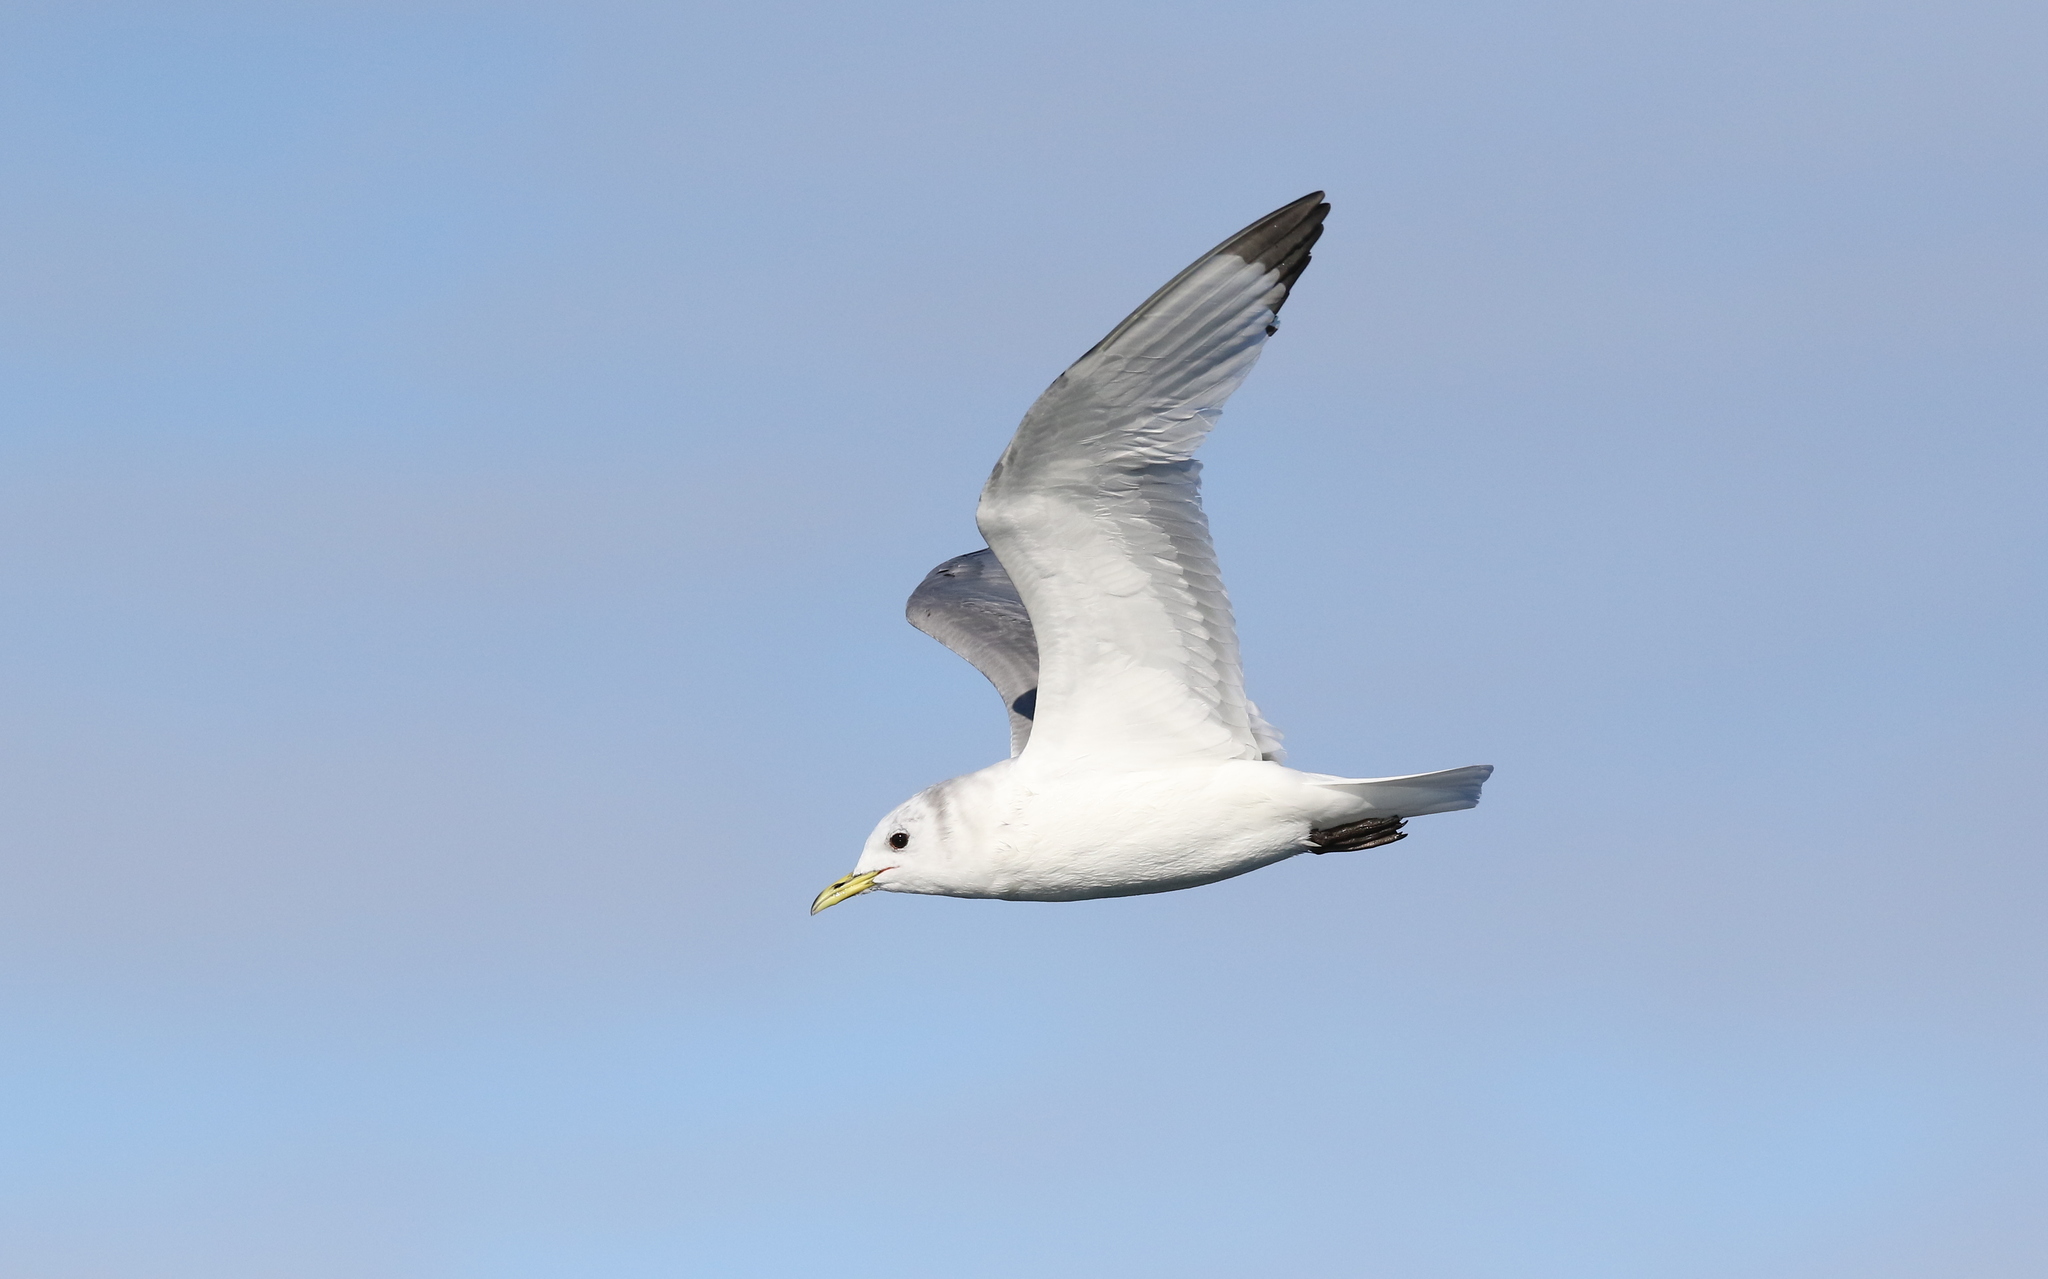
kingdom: Animalia
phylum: Chordata
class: Aves
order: Charadriiformes
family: Laridae
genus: Rissa
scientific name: Rissa tridactyla
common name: Black-legged kittiwake
